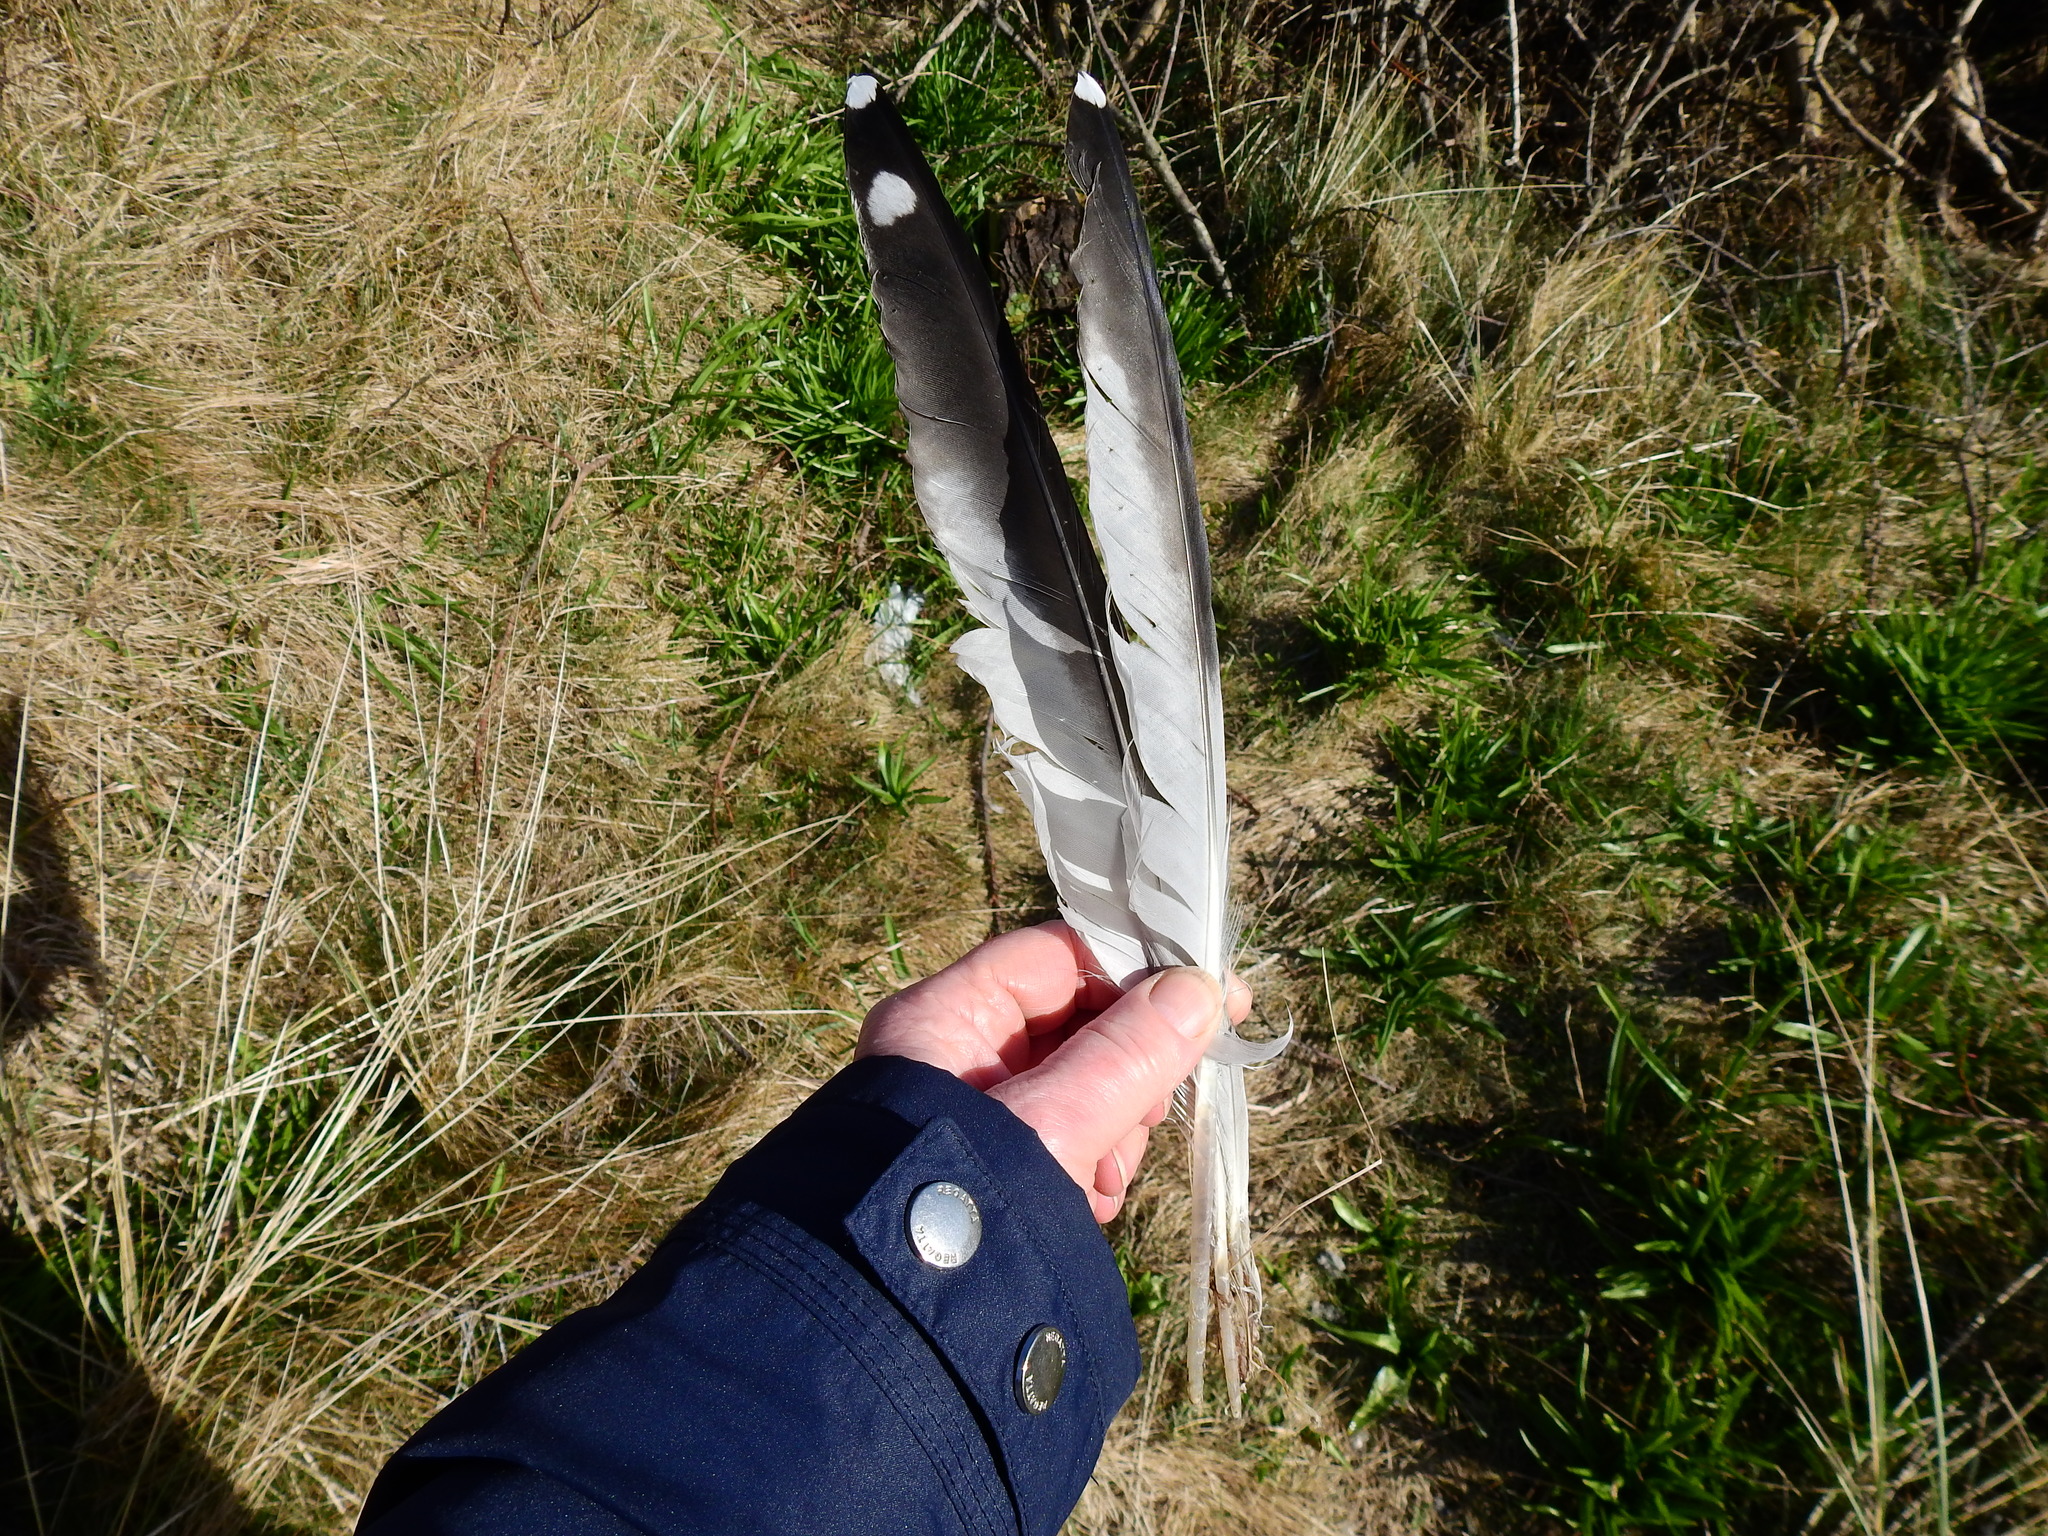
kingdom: Animalia
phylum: Chordata
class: Aves
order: Charadriiformes
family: Laridae
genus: Larus
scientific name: Larus argentatus
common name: Herring gull
